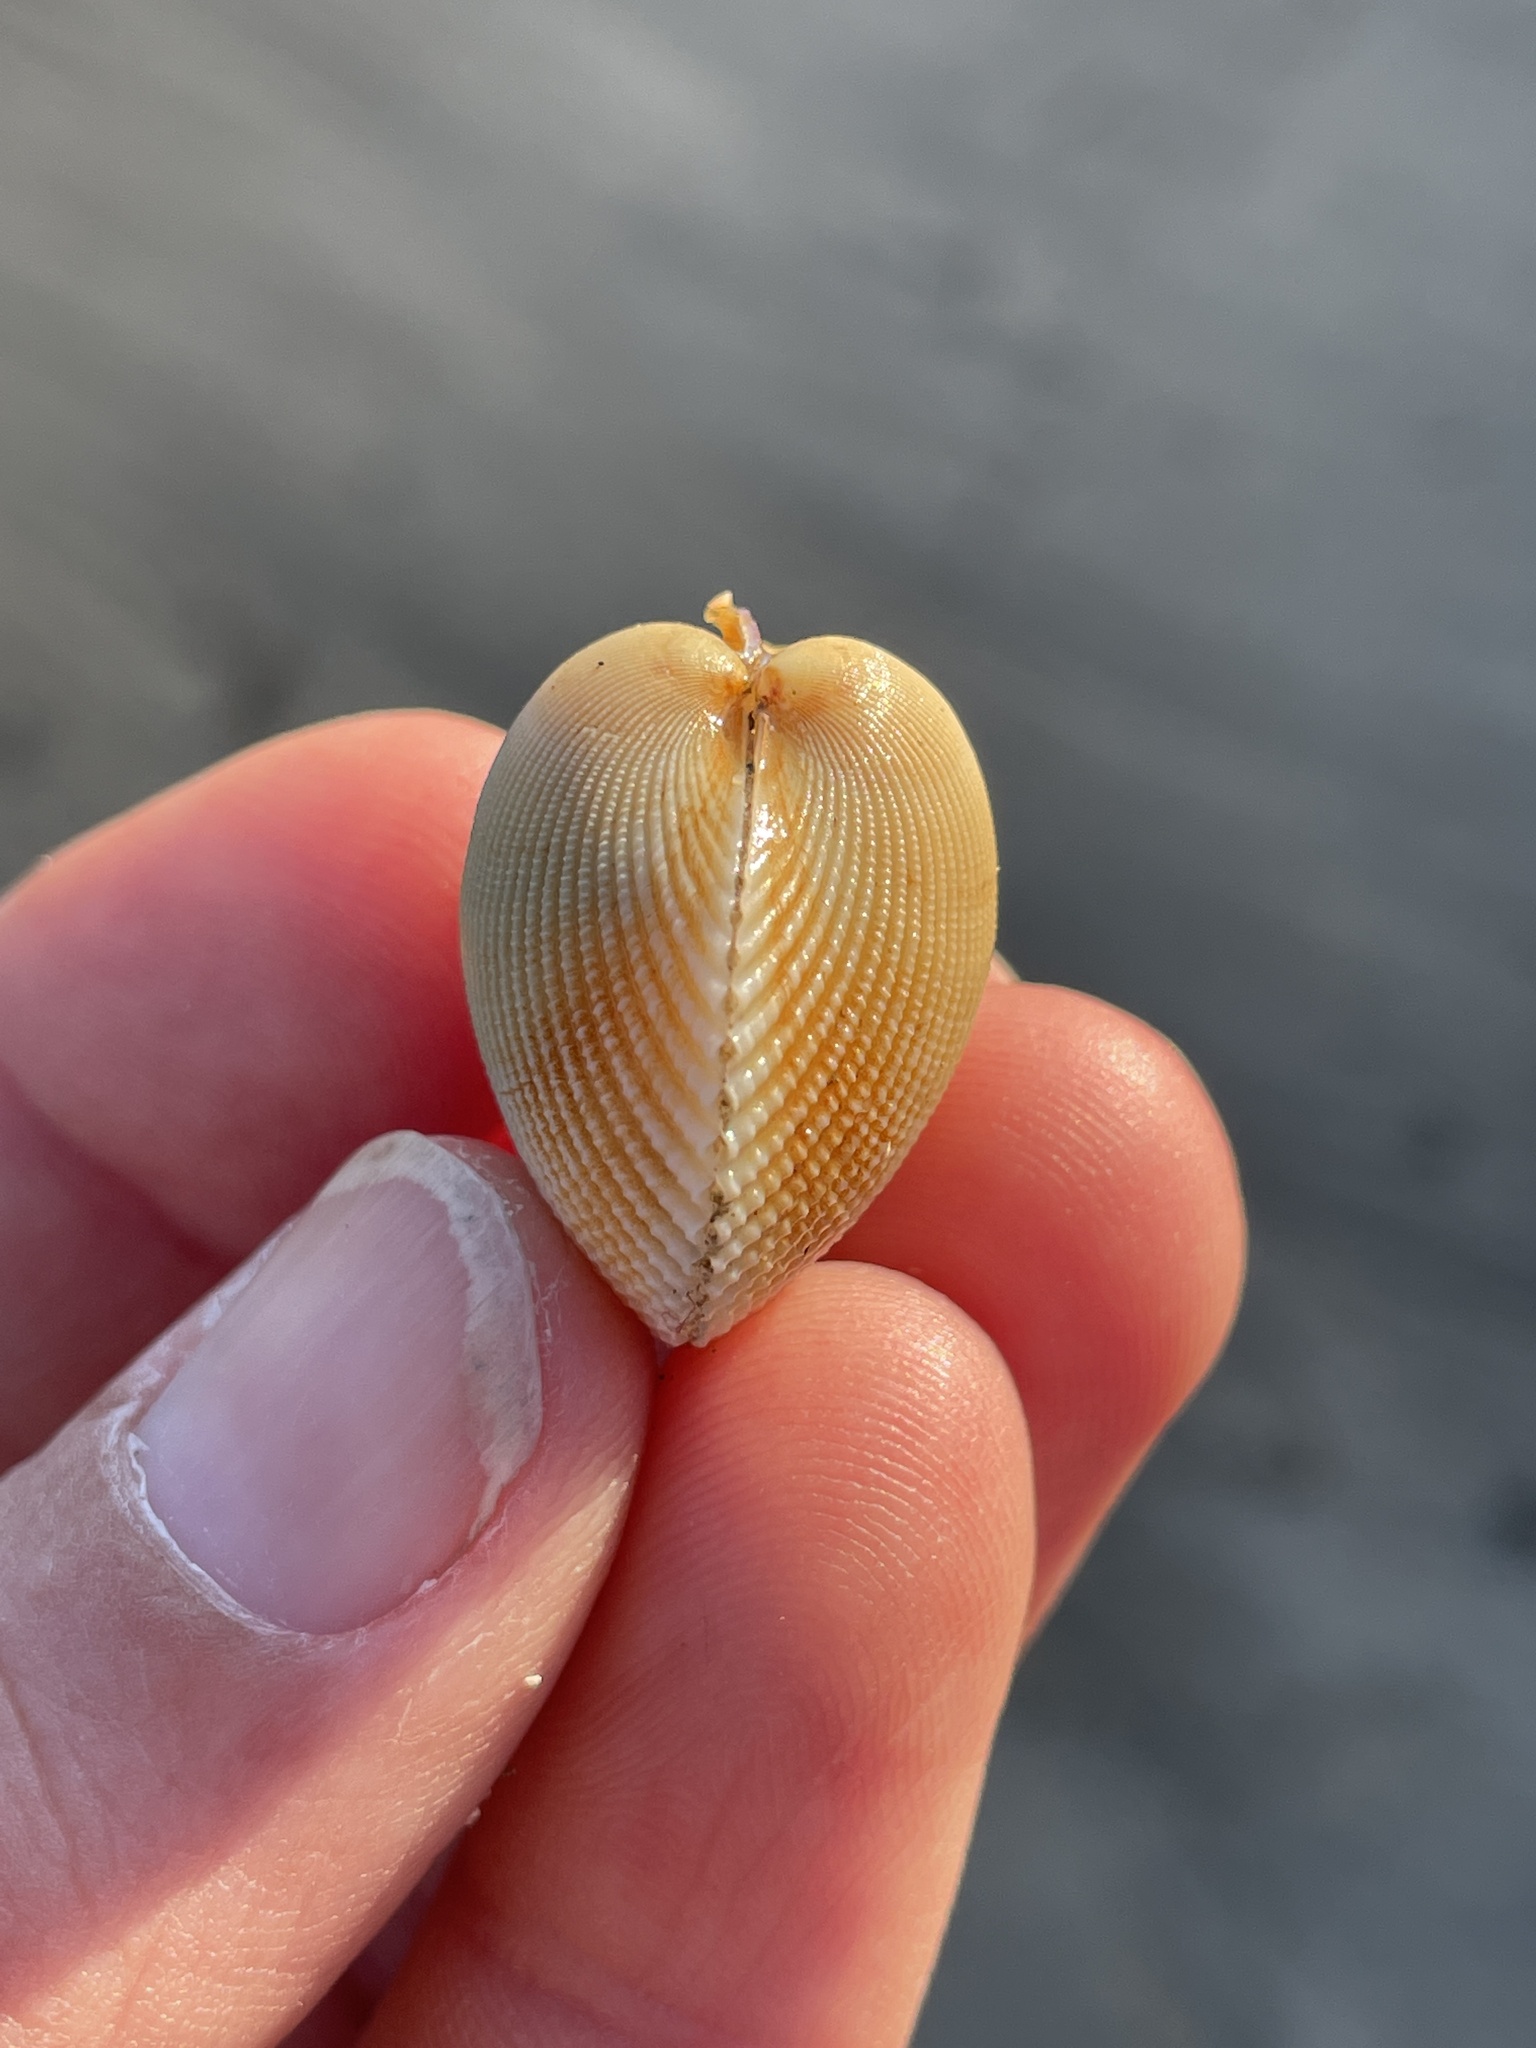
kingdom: Animalia
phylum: Mollusca
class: Bivalvia
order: Cardiida
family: Cardiidae
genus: Clinocardium
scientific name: Clinocardium nuttallii
